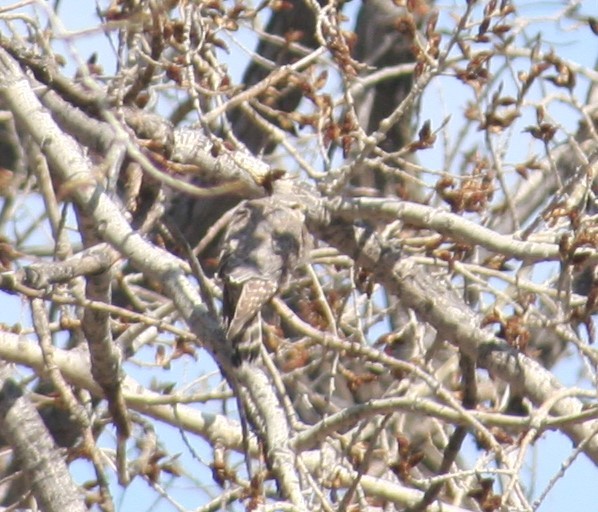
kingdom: Animalia
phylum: Chordata
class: Aves
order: Falconiformes
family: Falconidae
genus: Falco
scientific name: Falco columbarius
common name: Merlin
